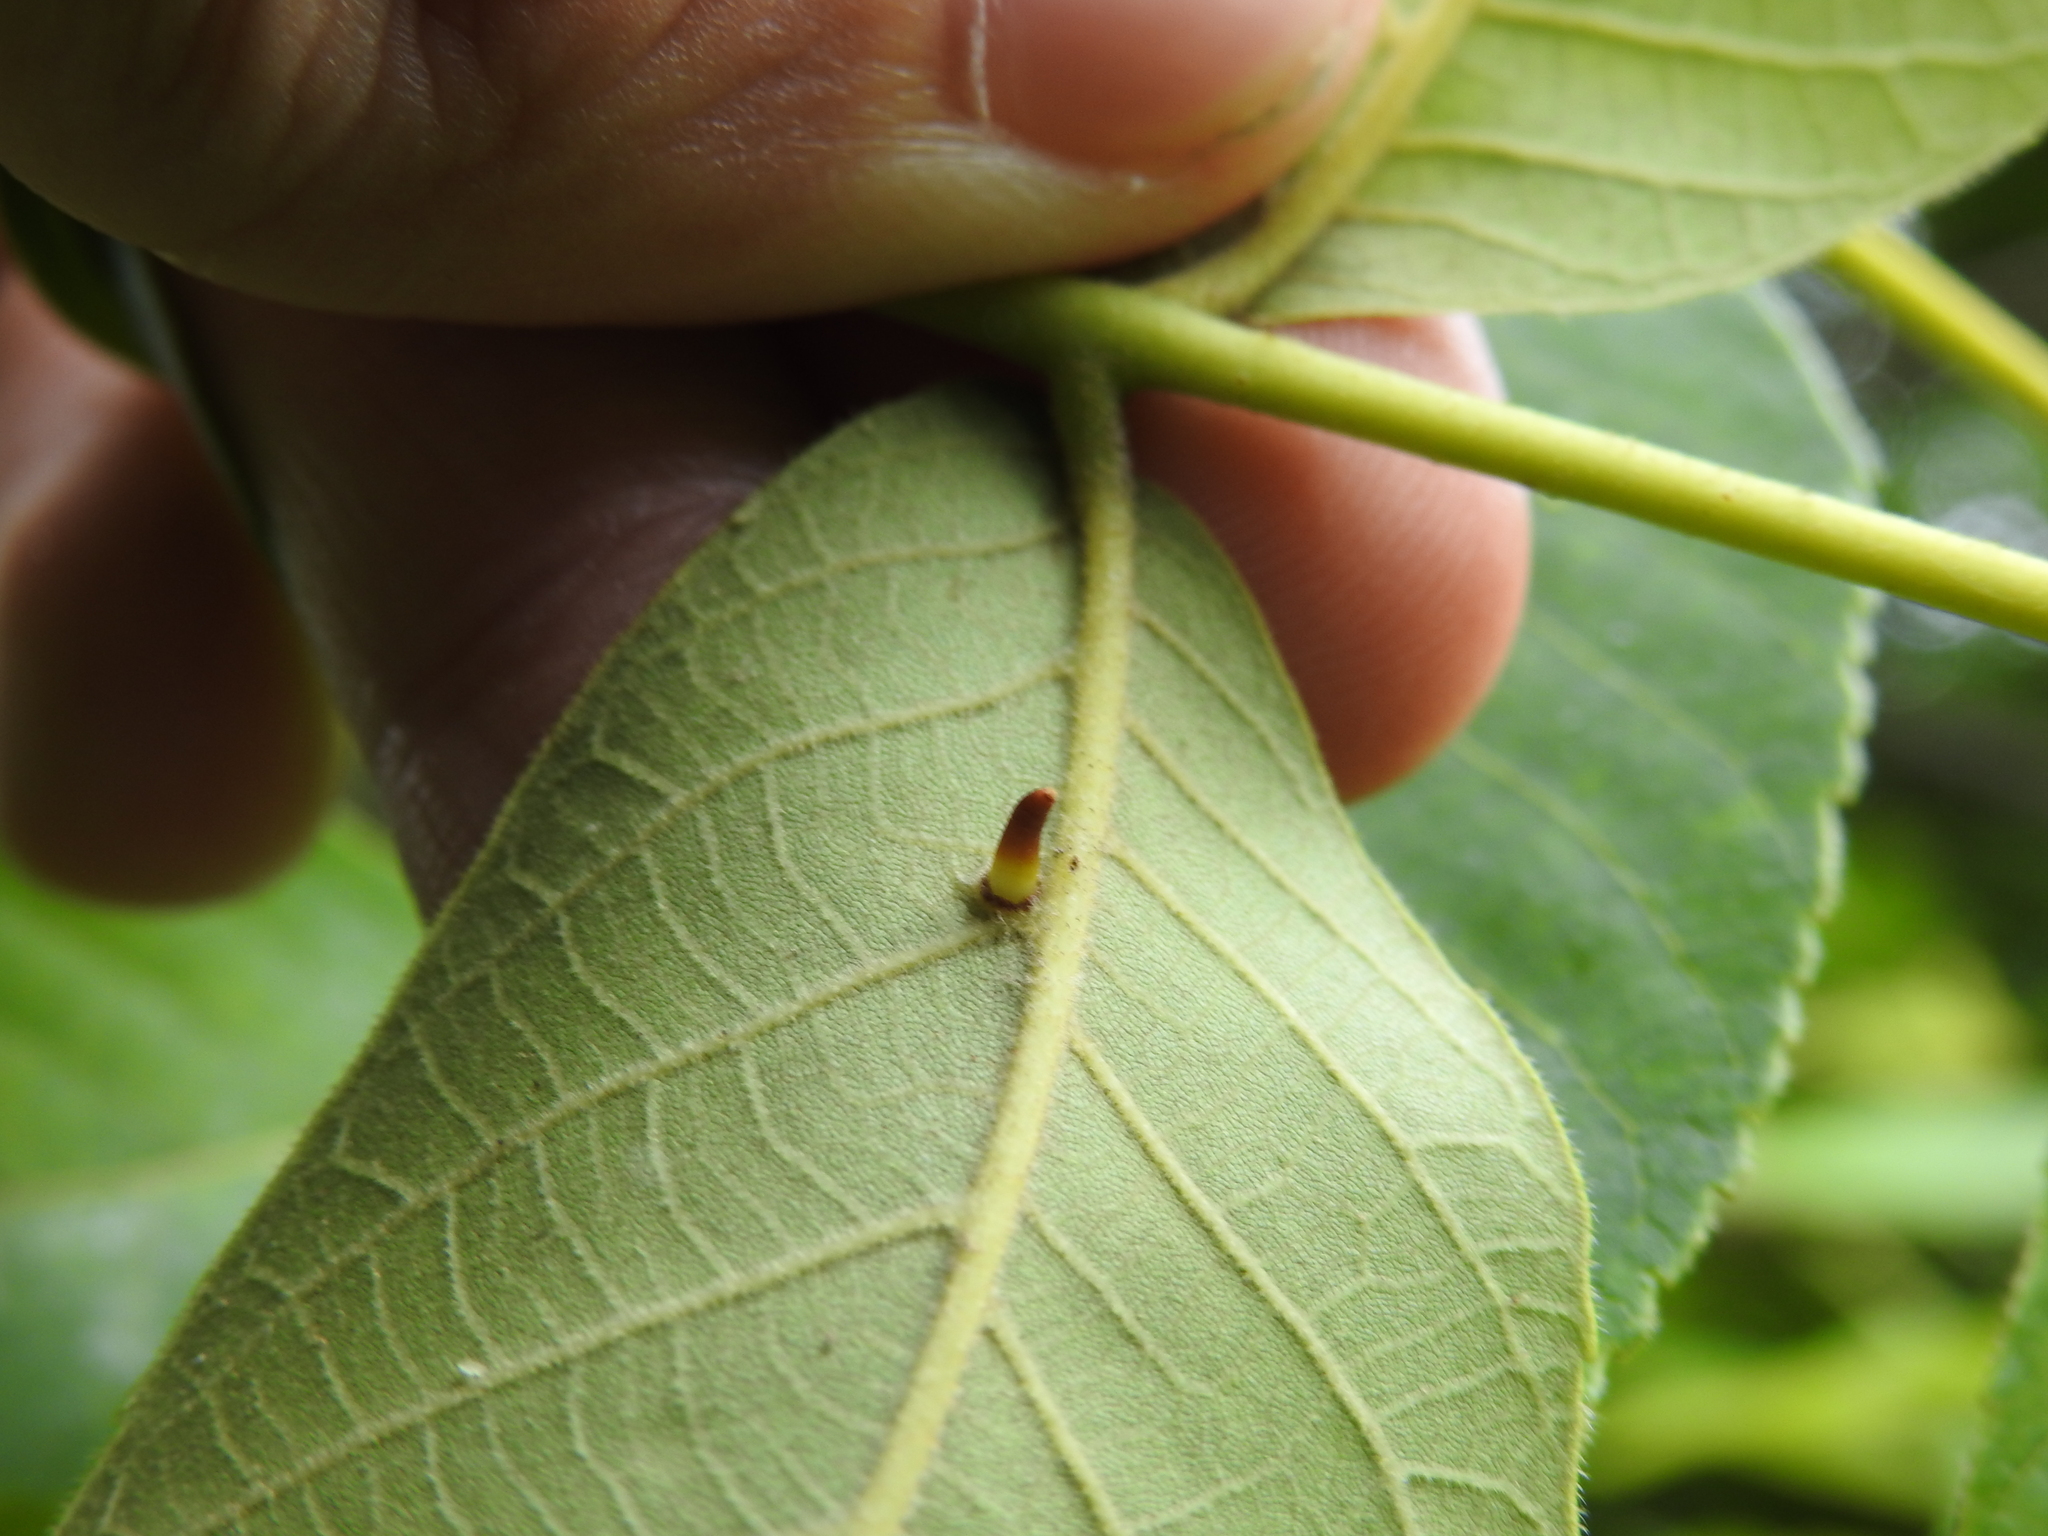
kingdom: Animalia
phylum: Arthropoda
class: Insecta
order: Diptera
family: Cecidomyiidae
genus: Caryomyia
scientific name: Caryomyia subulata
